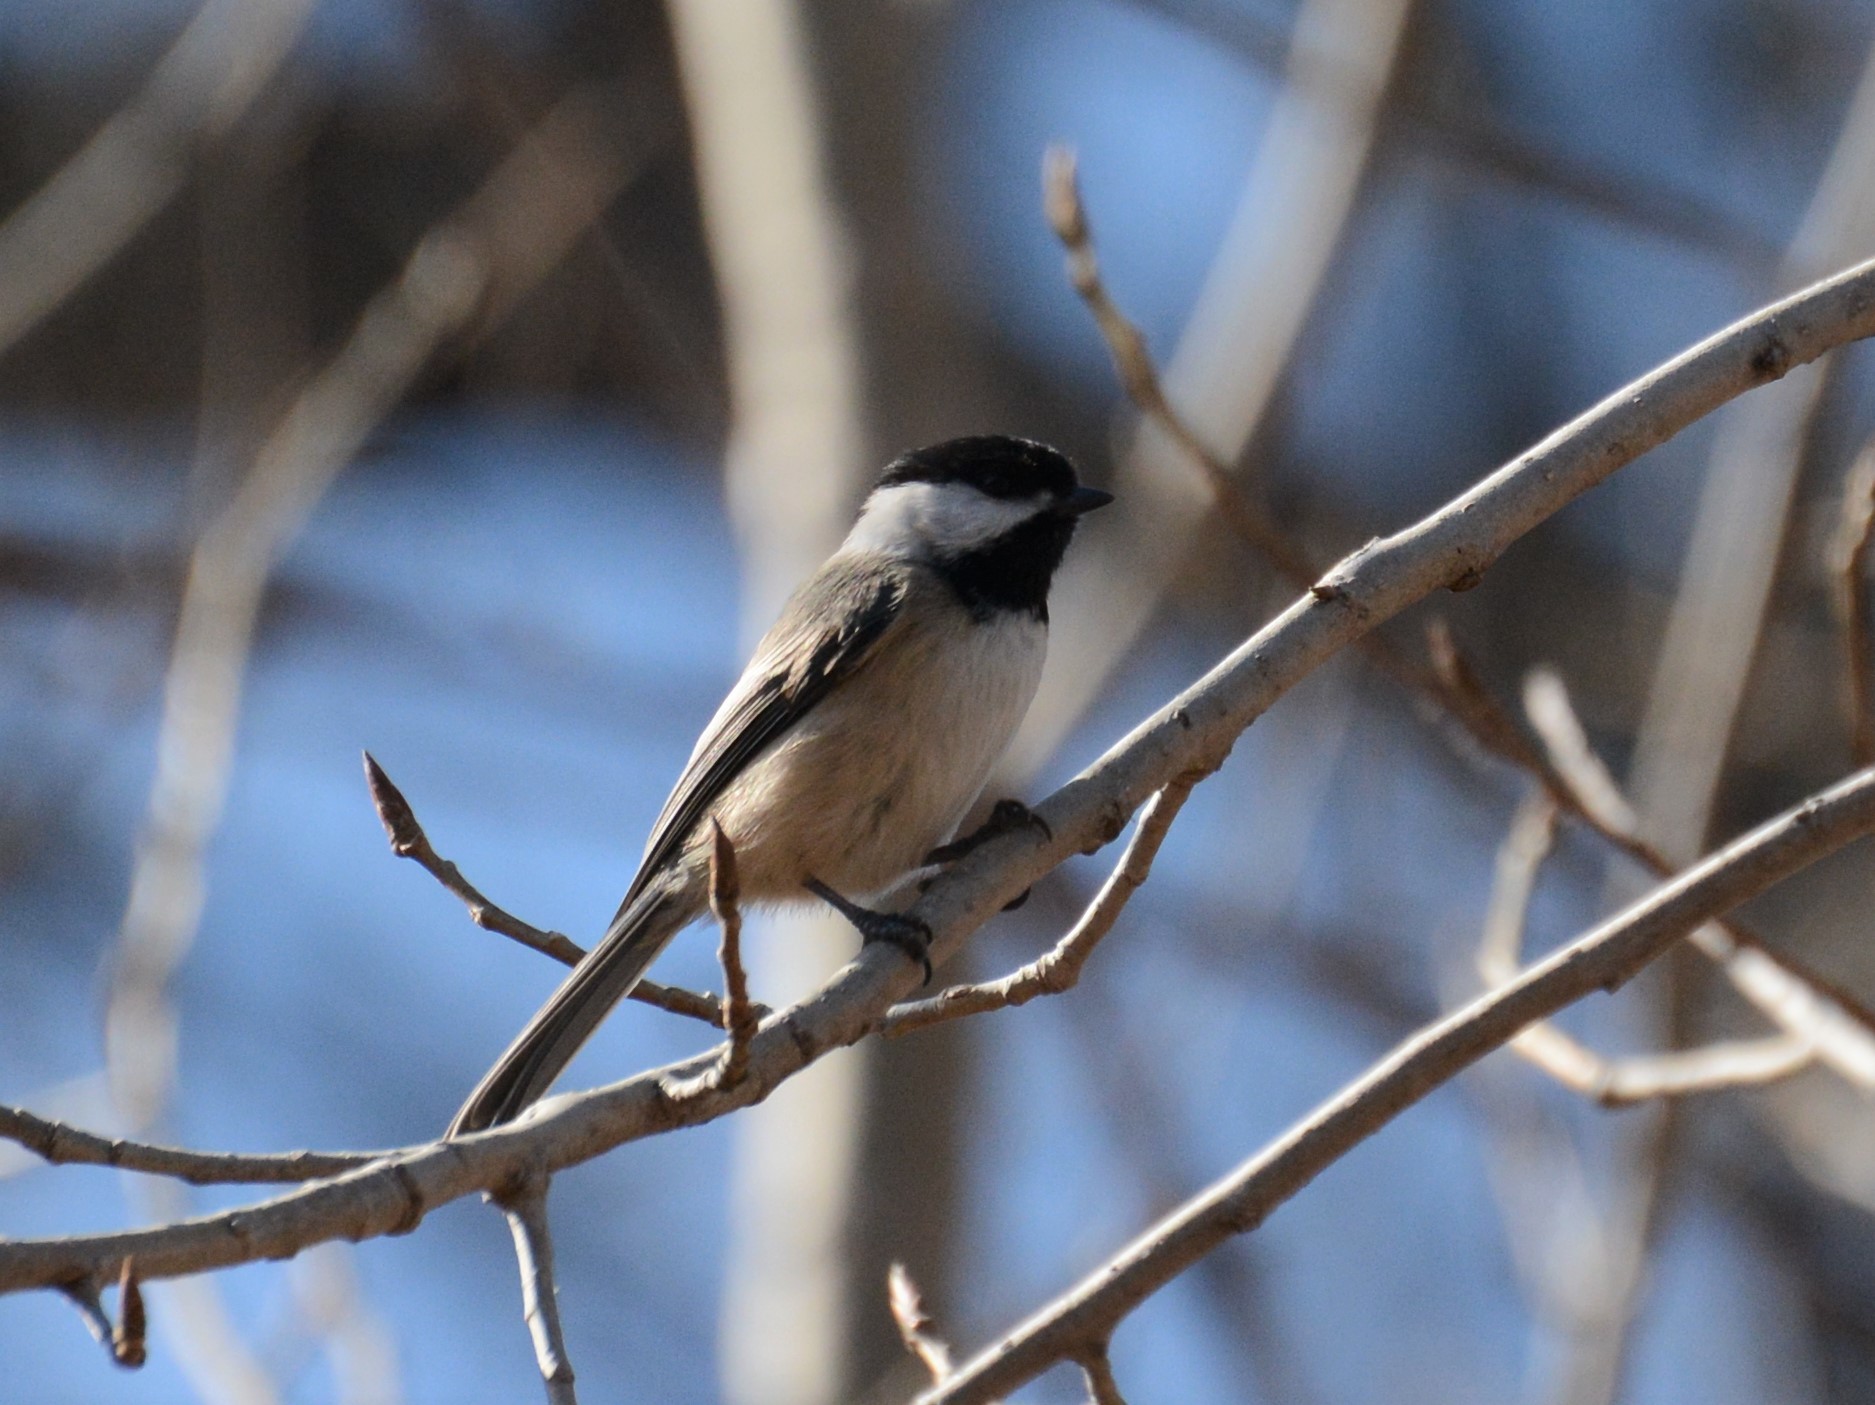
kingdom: Animalia
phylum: Chordata
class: Aves
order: Passeriformes
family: Paridae
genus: Poecile
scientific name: Poecile atricapillus
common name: Black-capped chickadee
